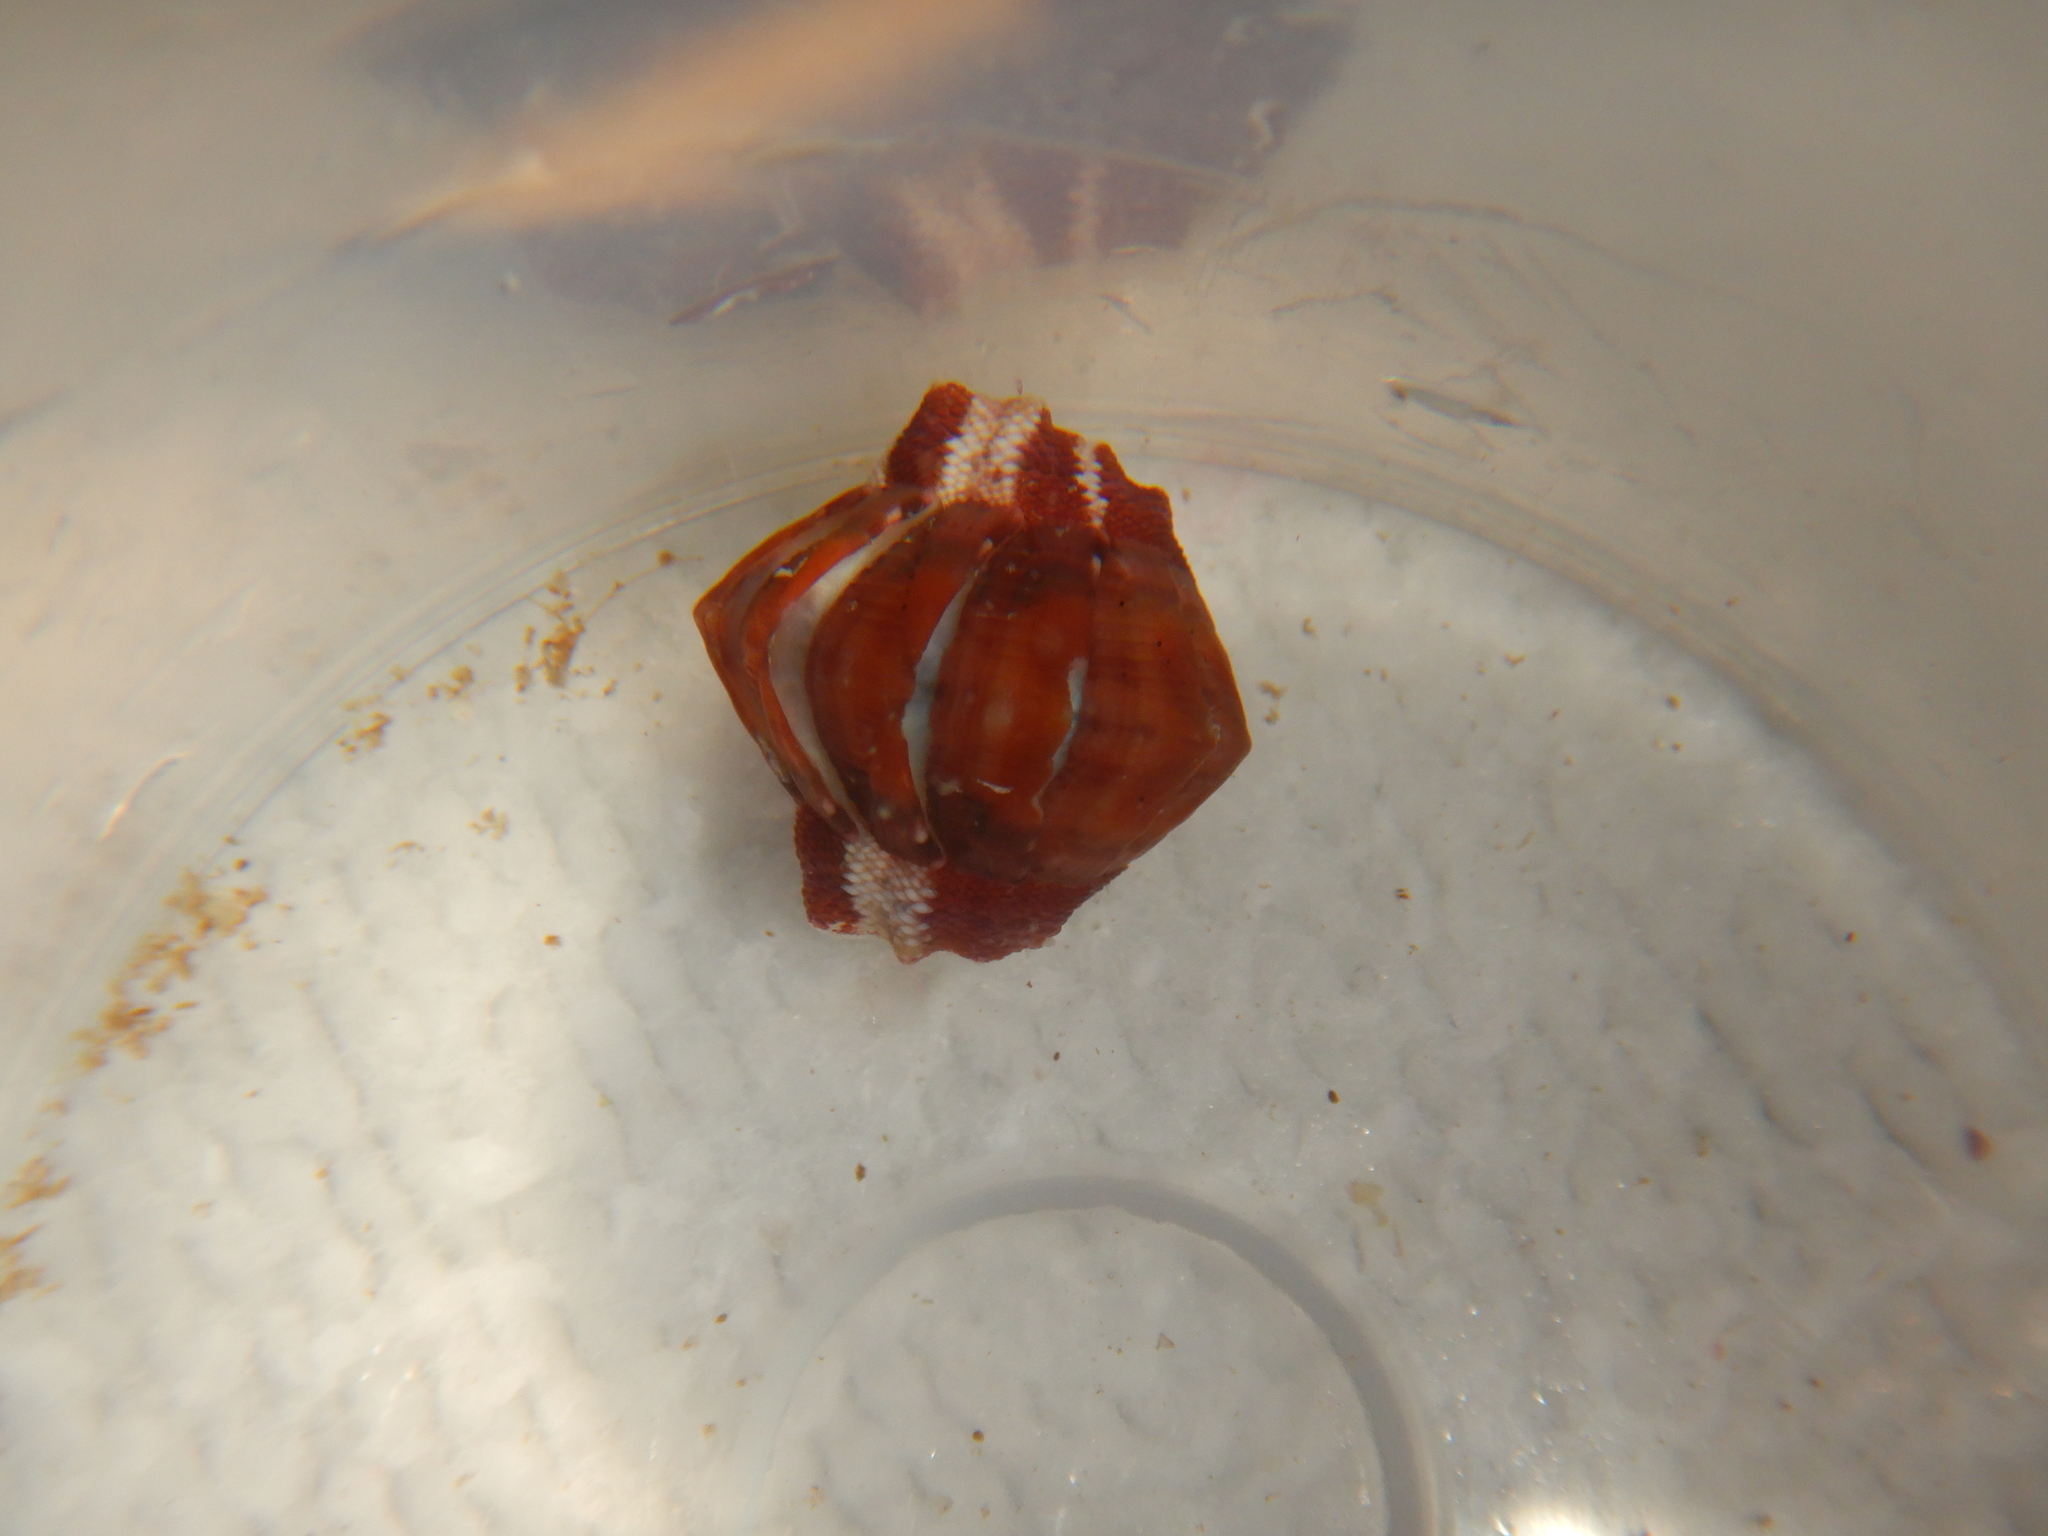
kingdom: Animalia
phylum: Mollusca
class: Polyplacophora
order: Chitonida
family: Chitonidae
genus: Rhyssoplax
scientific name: Rhyssoplax olivacea
